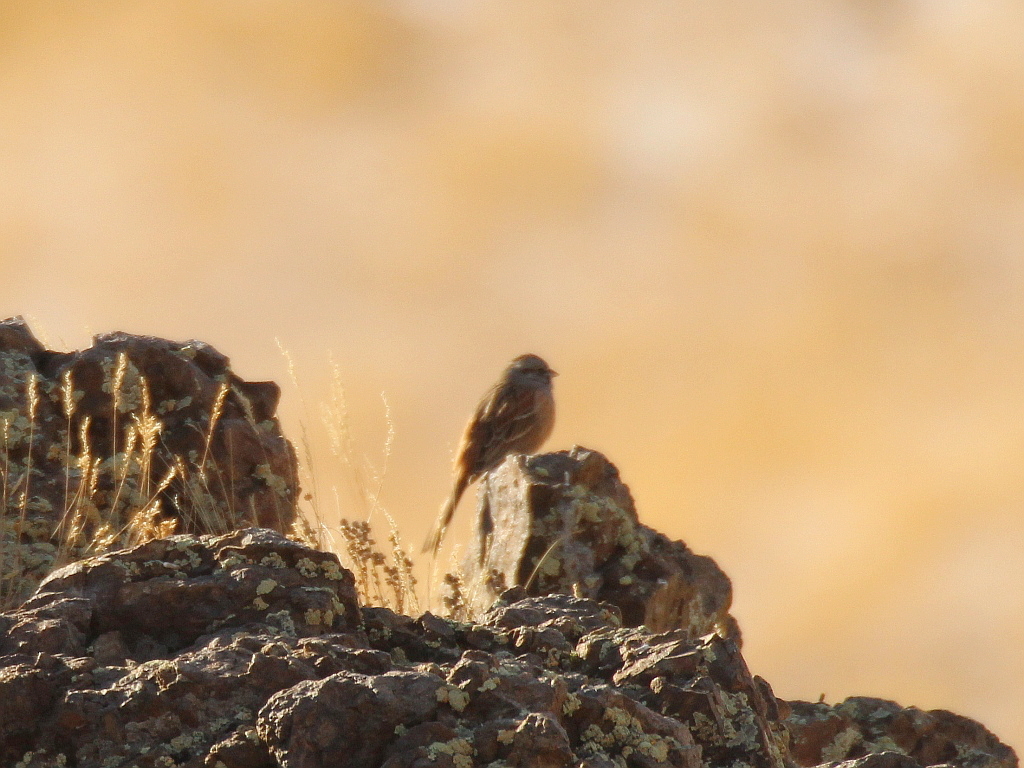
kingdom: Animalia
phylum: Chordata
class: Aves
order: Passeriformes
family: Emberizidae
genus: Emberiza
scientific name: Emberiza godlewskii
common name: Godlewski's bunting
